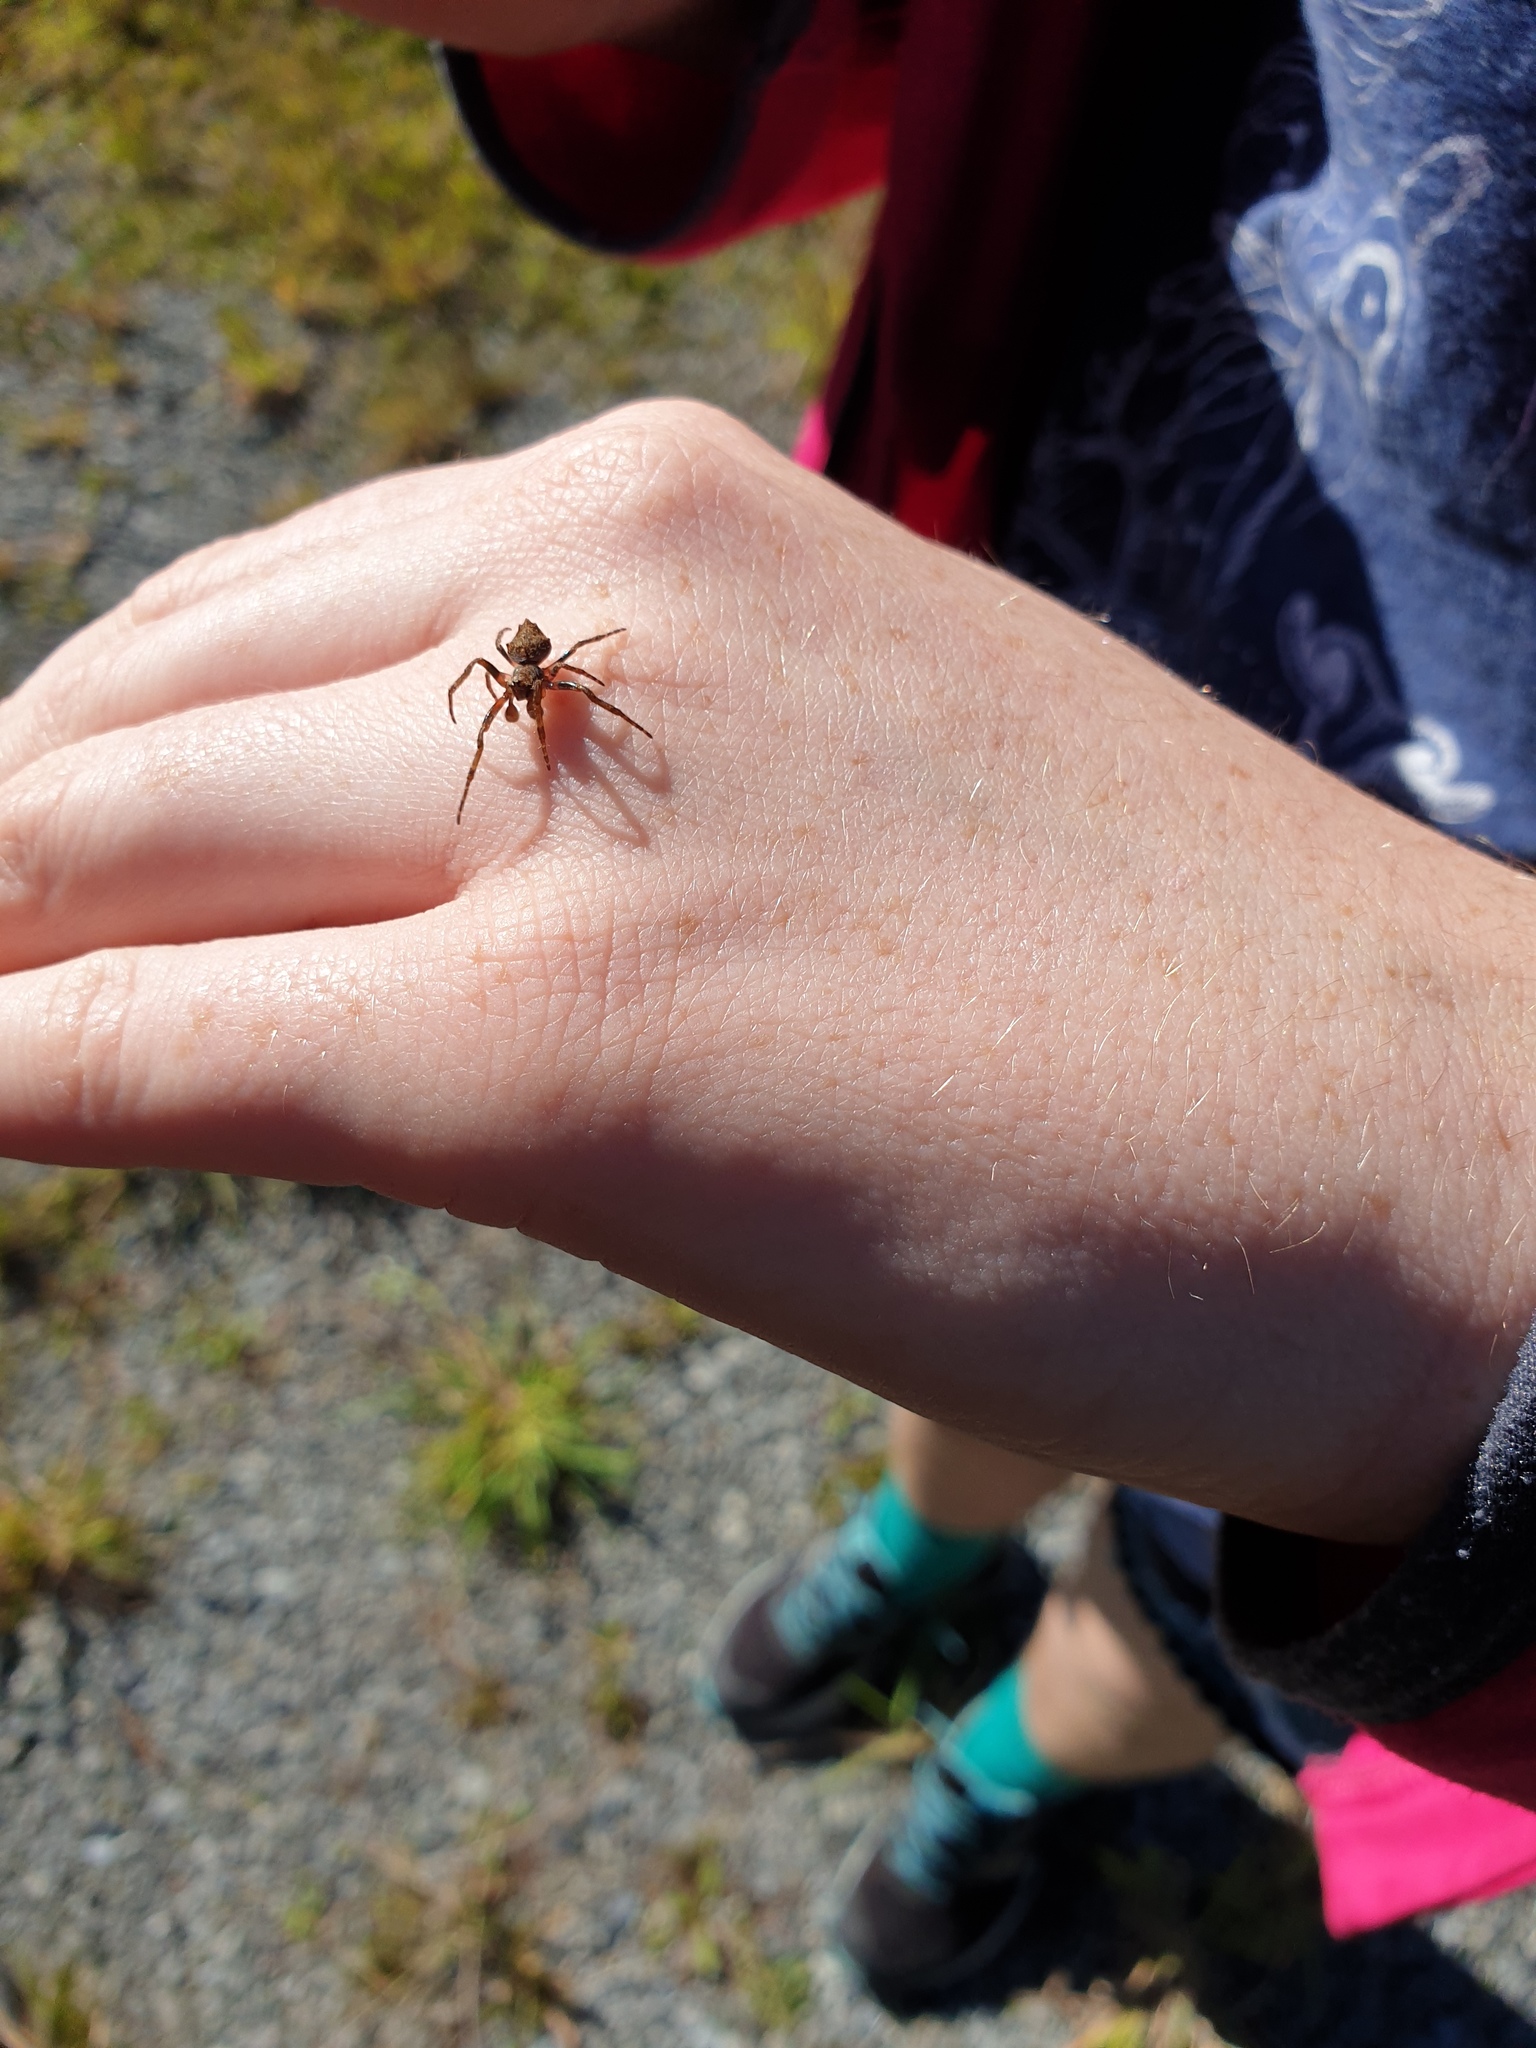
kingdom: Animalia
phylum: Arthropoda
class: Arachnida
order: Araneae
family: Araneidae
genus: Eriophora
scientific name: Eriophora pustulosa
